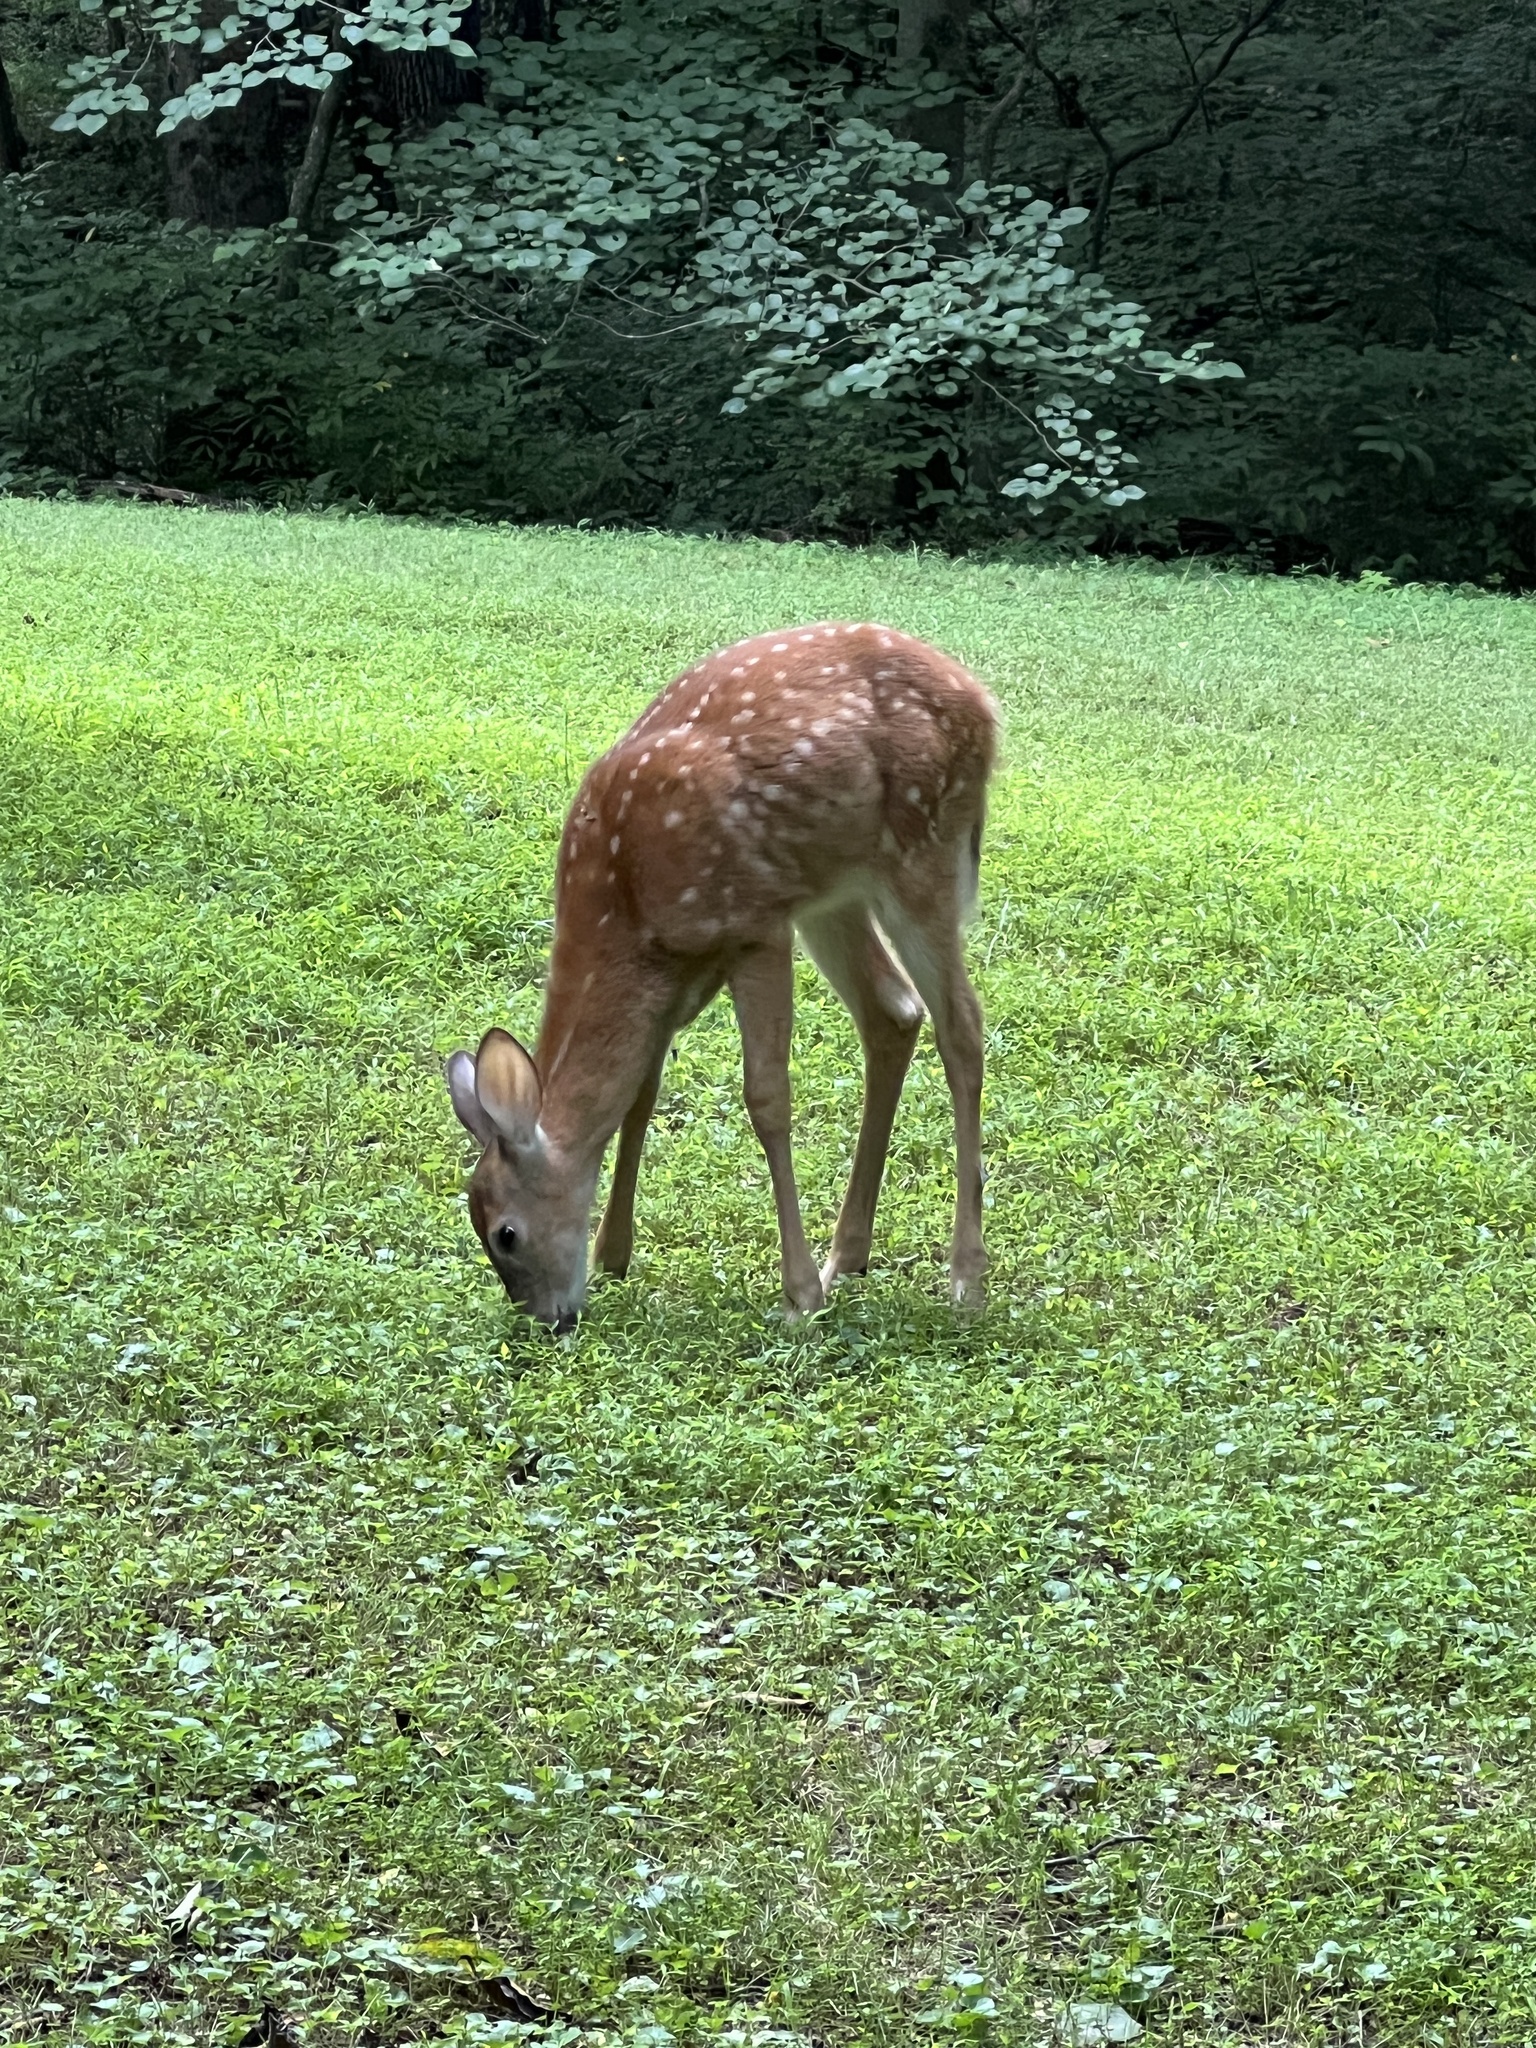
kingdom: Animalia
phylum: Chordata
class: Mammalia
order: Artiodactyla
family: Cervidae
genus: Odocoileus
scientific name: Odocoileus virginianus
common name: White-tailed deer
